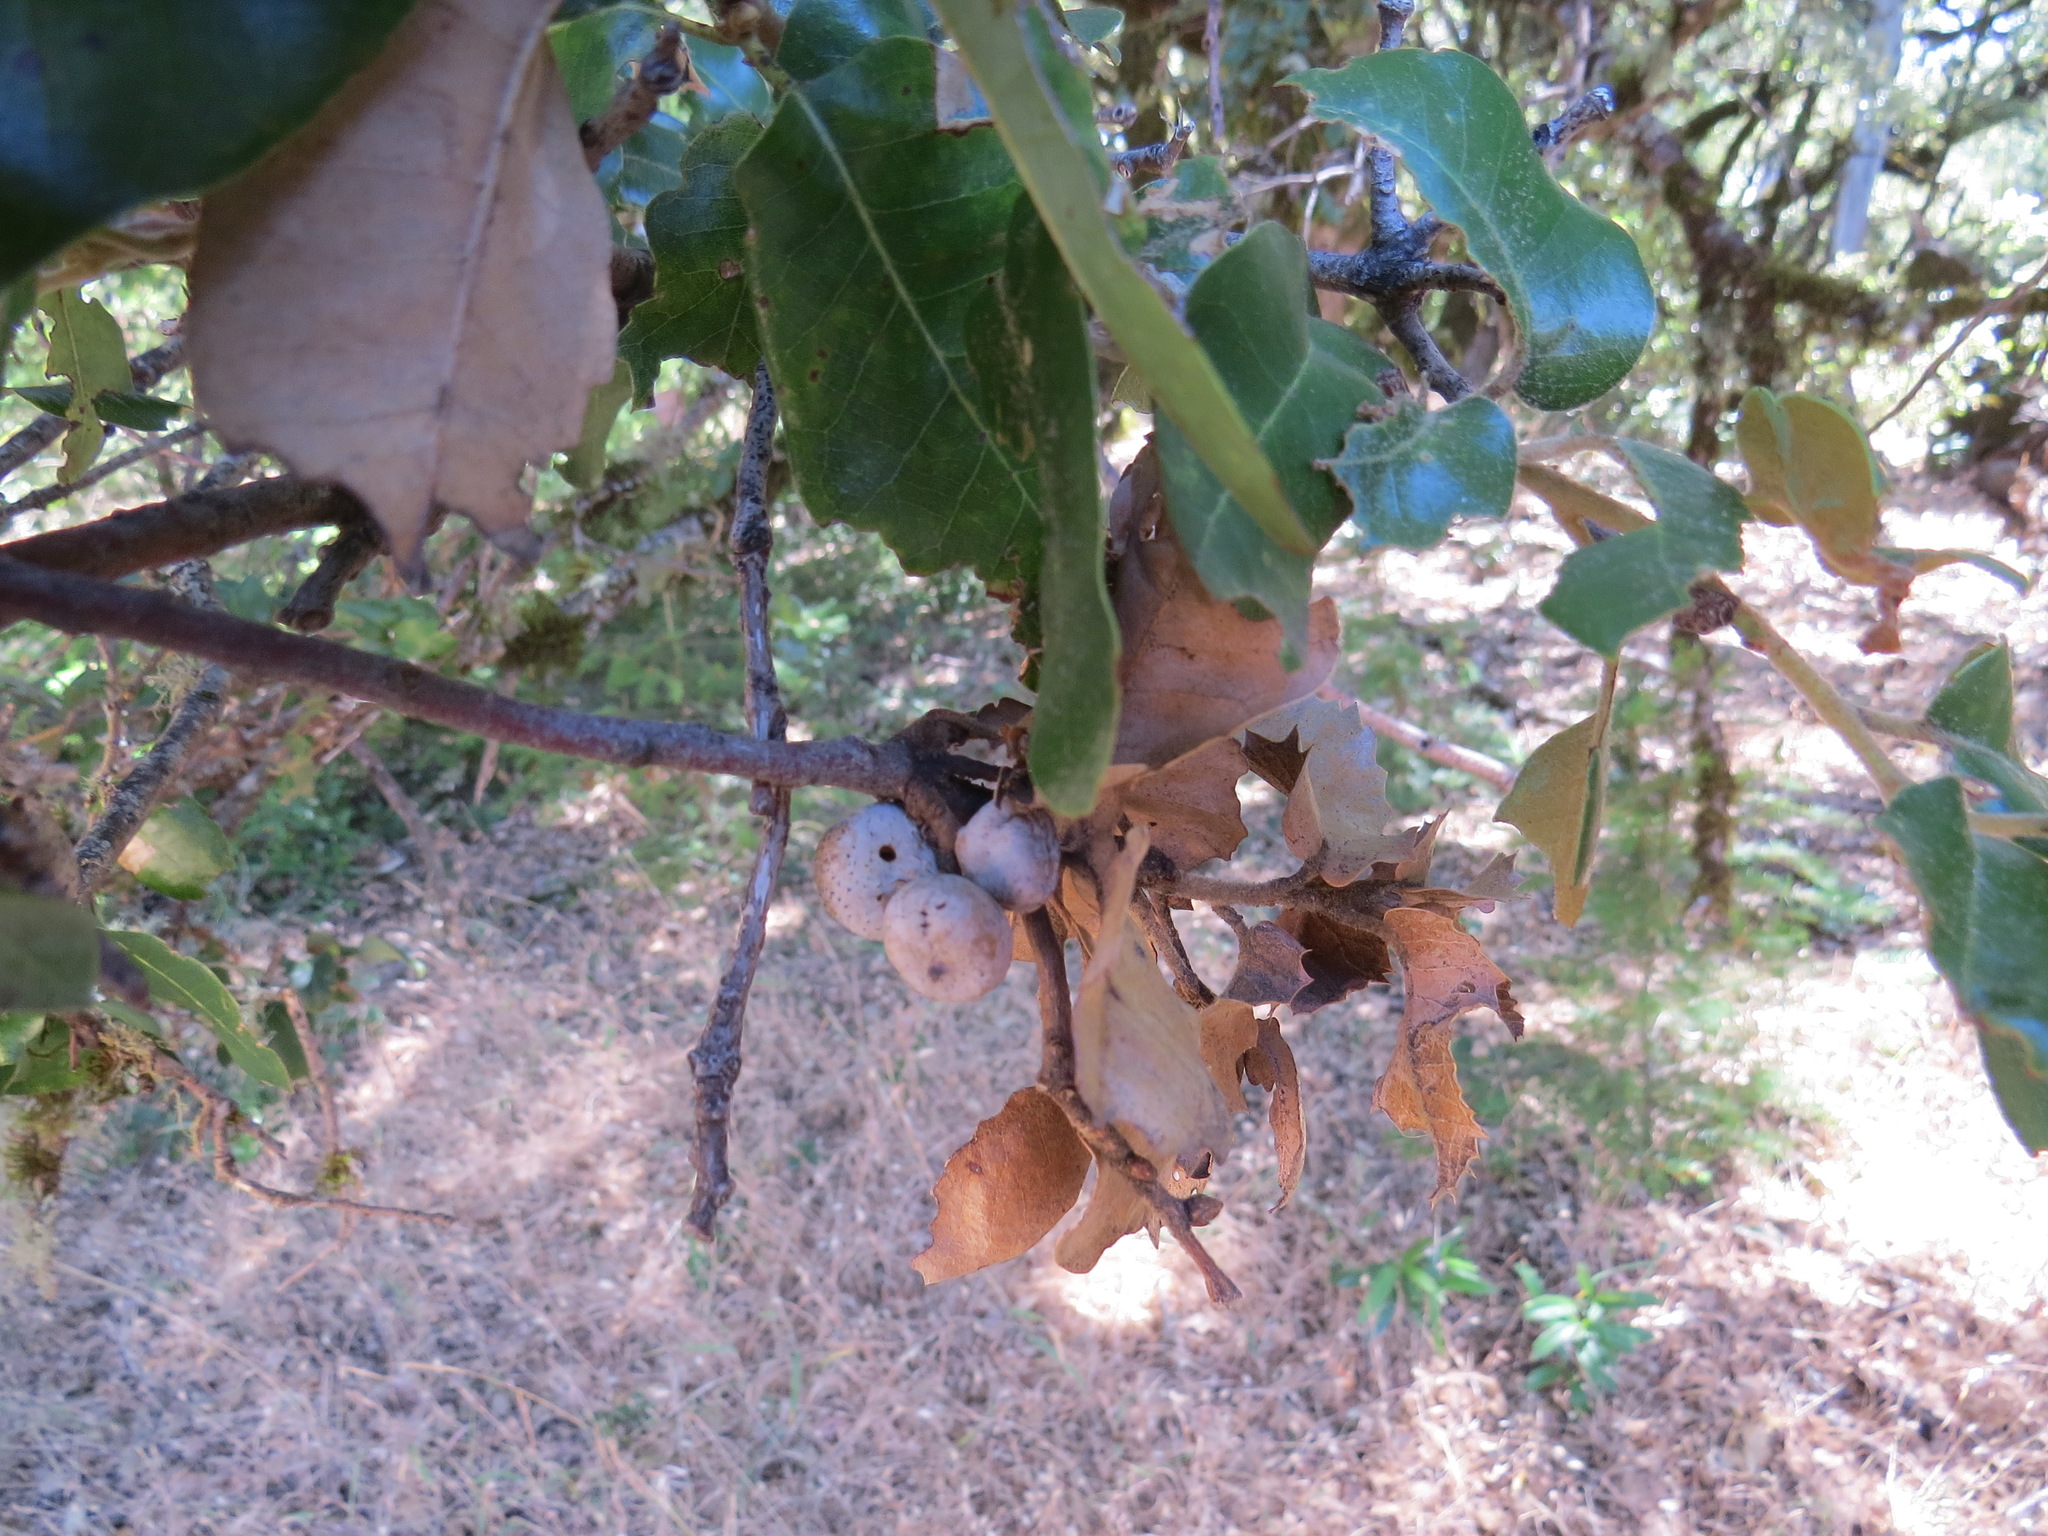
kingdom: Animalia
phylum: Arthropoda
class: Insecta
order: Hymenoptera
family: Cynipidae
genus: Heteroecus
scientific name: Heteroecus
